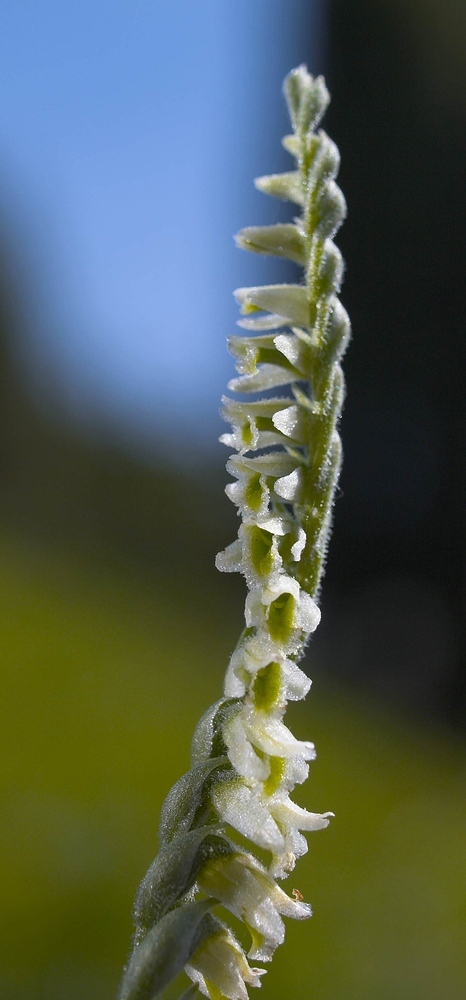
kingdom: Plantae
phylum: Tracheophyta
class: Liliopsida
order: Asparagales
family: Orchidaceae
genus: Spiranthes
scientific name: Spiranthes spiralis
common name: Autumn lady's-tresses
